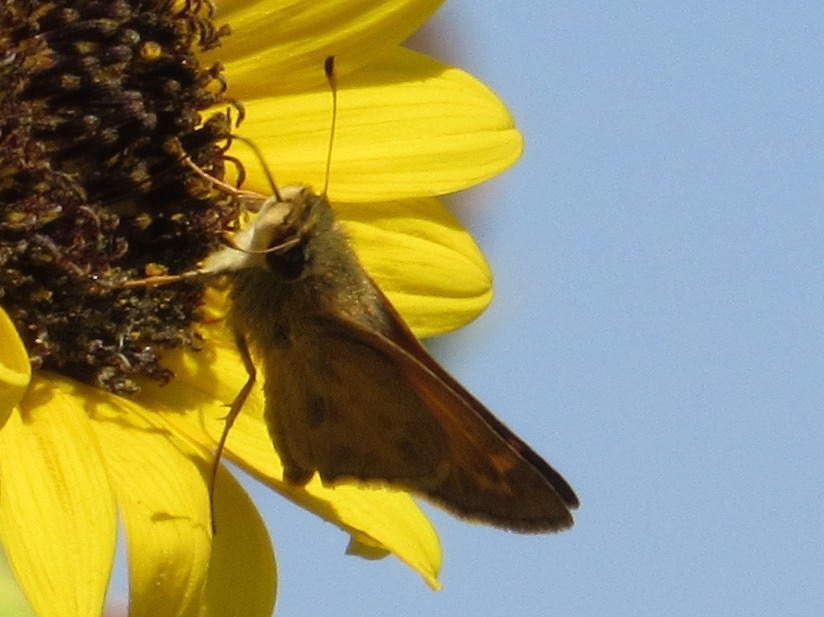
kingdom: Animalia
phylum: Arthropoda
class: Insecta
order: Lepidoptera
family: Hesperiidae
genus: Atalopedes
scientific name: Atalopedes
